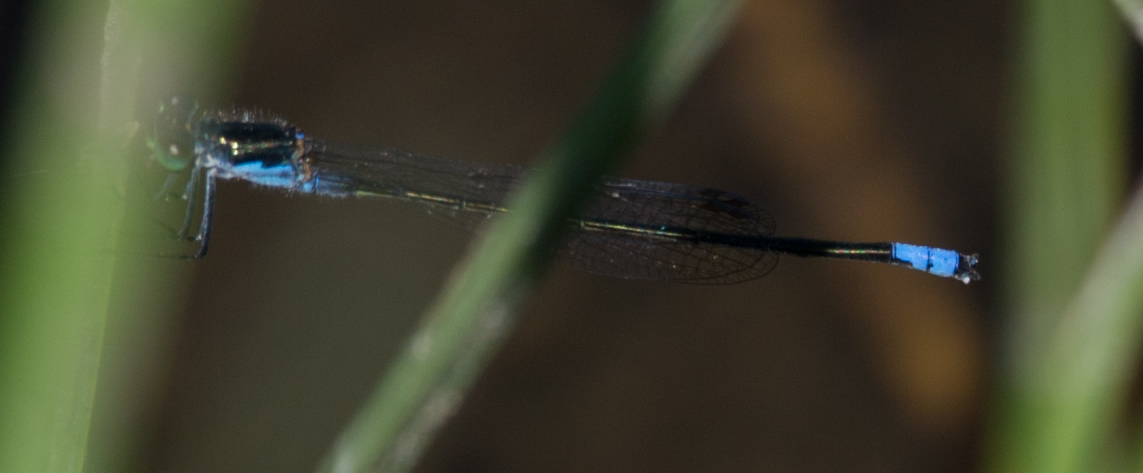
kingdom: Animalia
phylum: Arthropoda
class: Insecta
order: Odonata
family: Coenagrionidae
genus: Pseudagrion
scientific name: Pseudagrion deningi
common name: Dening's sprite
